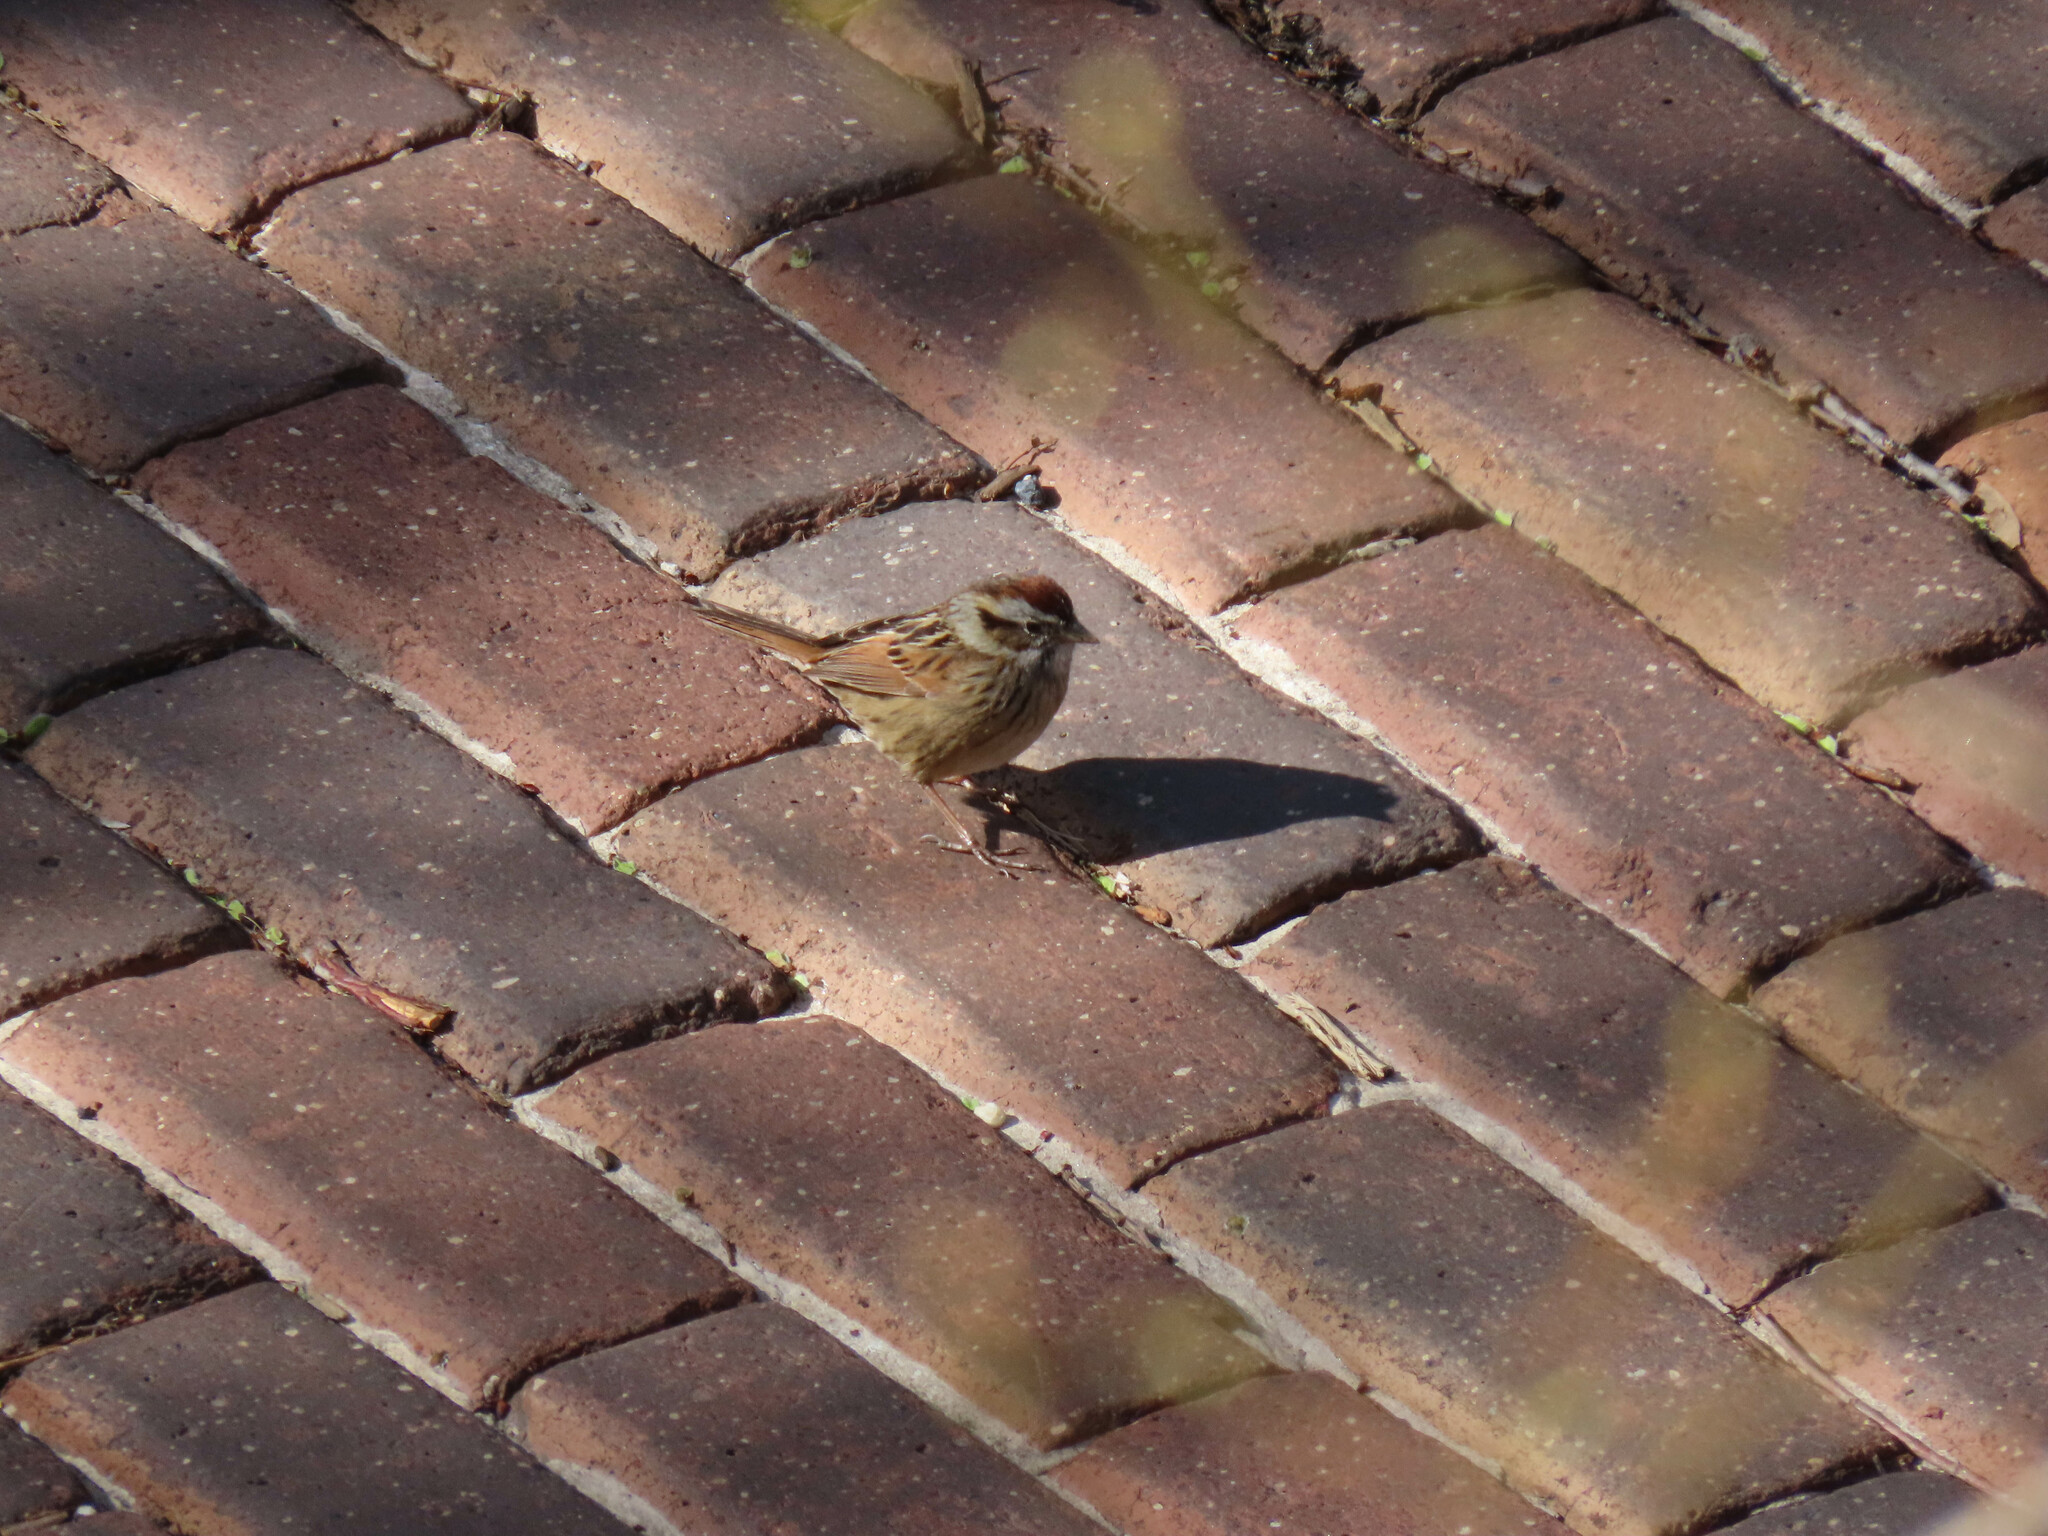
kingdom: Animalia
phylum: Chordata
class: Aves
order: Passeriformes
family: Passerellidae
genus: Melospiza
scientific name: Melospiza georgiana
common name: Swamp sparrow
